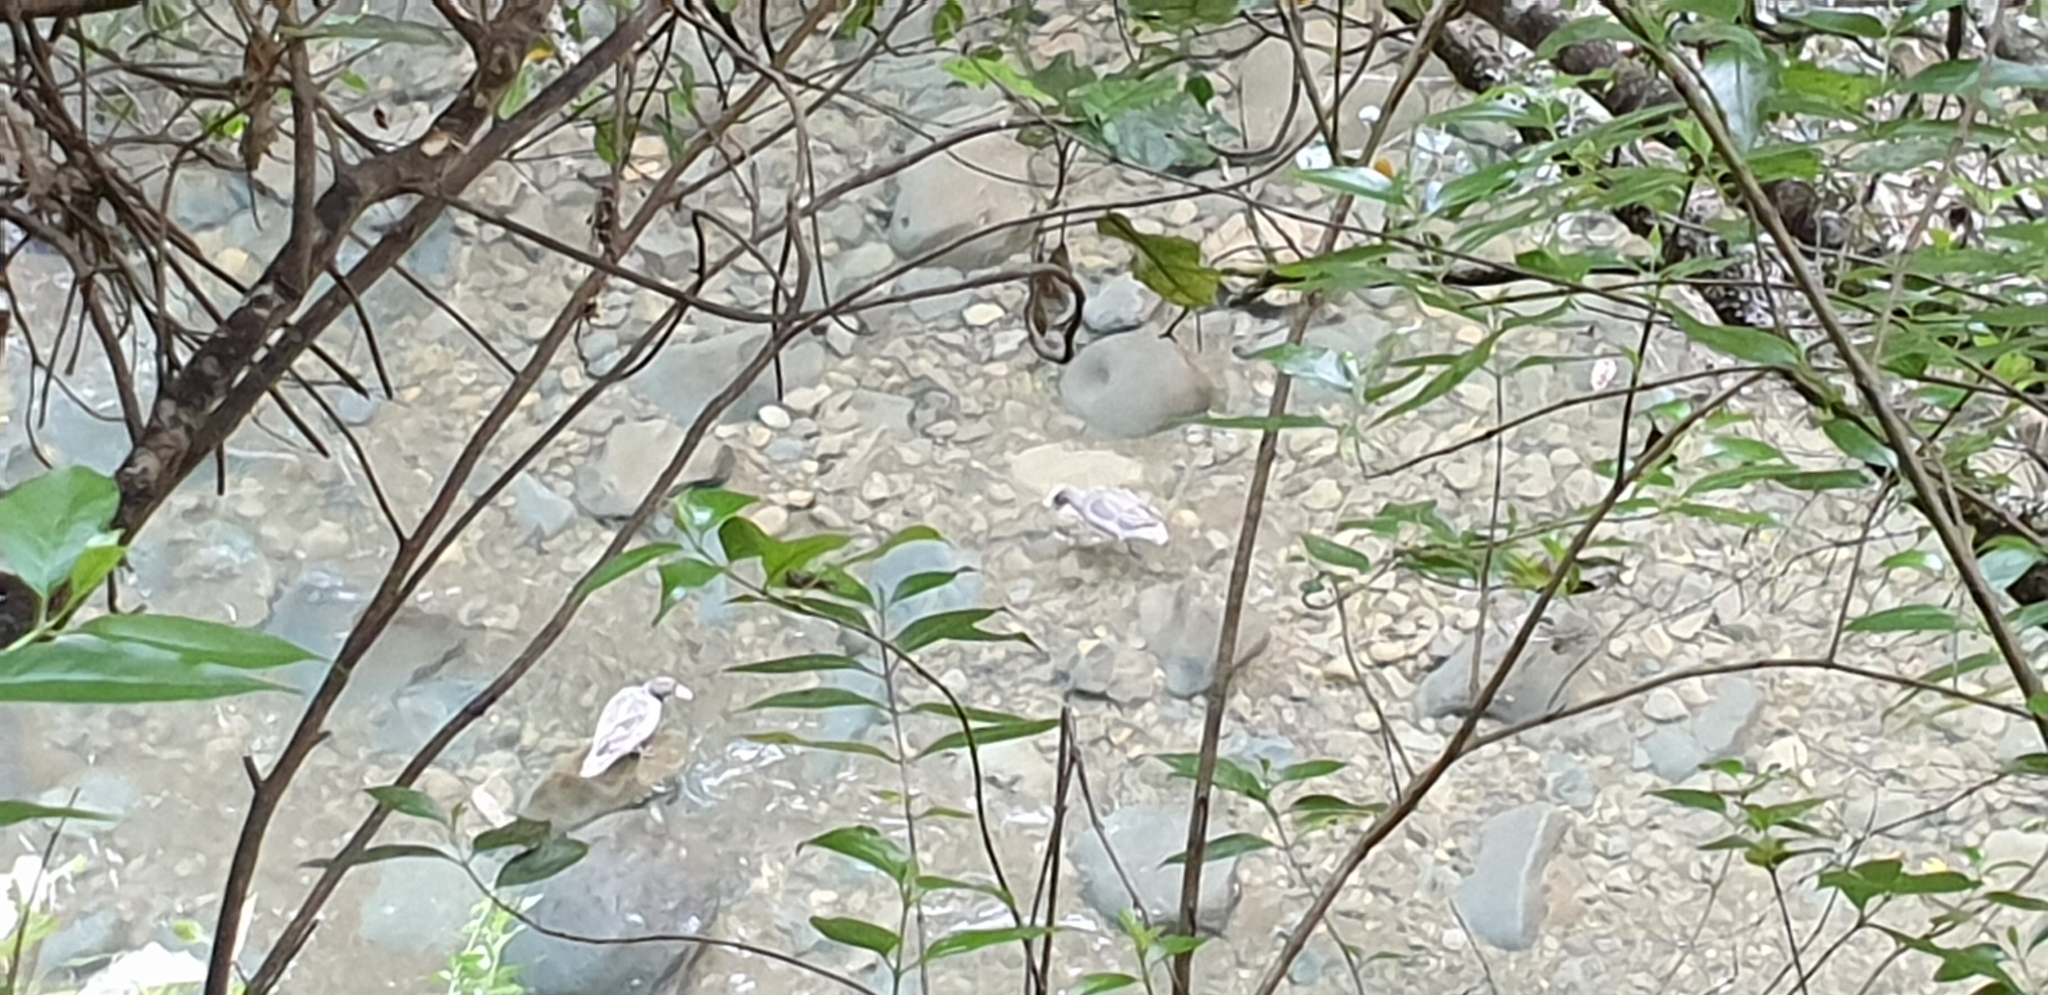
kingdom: Animalia
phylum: Chordata
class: Aves
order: Anseriformes
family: Anatidae
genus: Hymenolaimus
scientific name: Hymenolaimus malacorhynchos
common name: Blue duck
